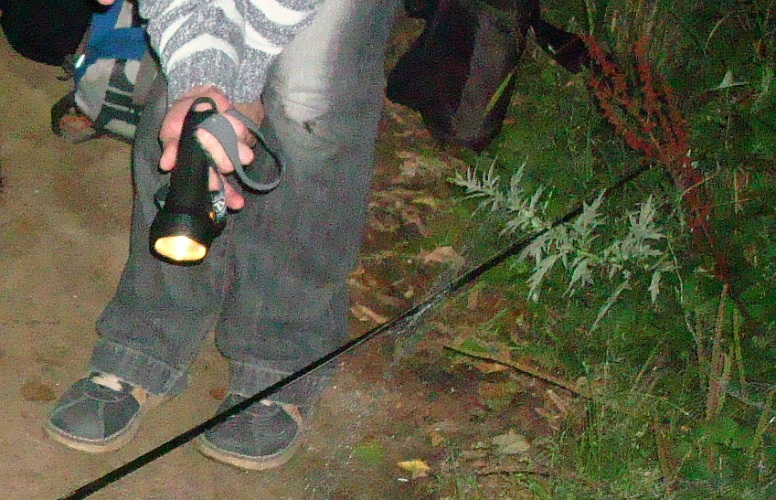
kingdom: Plantae
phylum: Tracheophyta
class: Magnoliopsida
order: Asterales
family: Asteraceae
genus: Artemisia
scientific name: Artemisia vulgaris
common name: Mugwort
